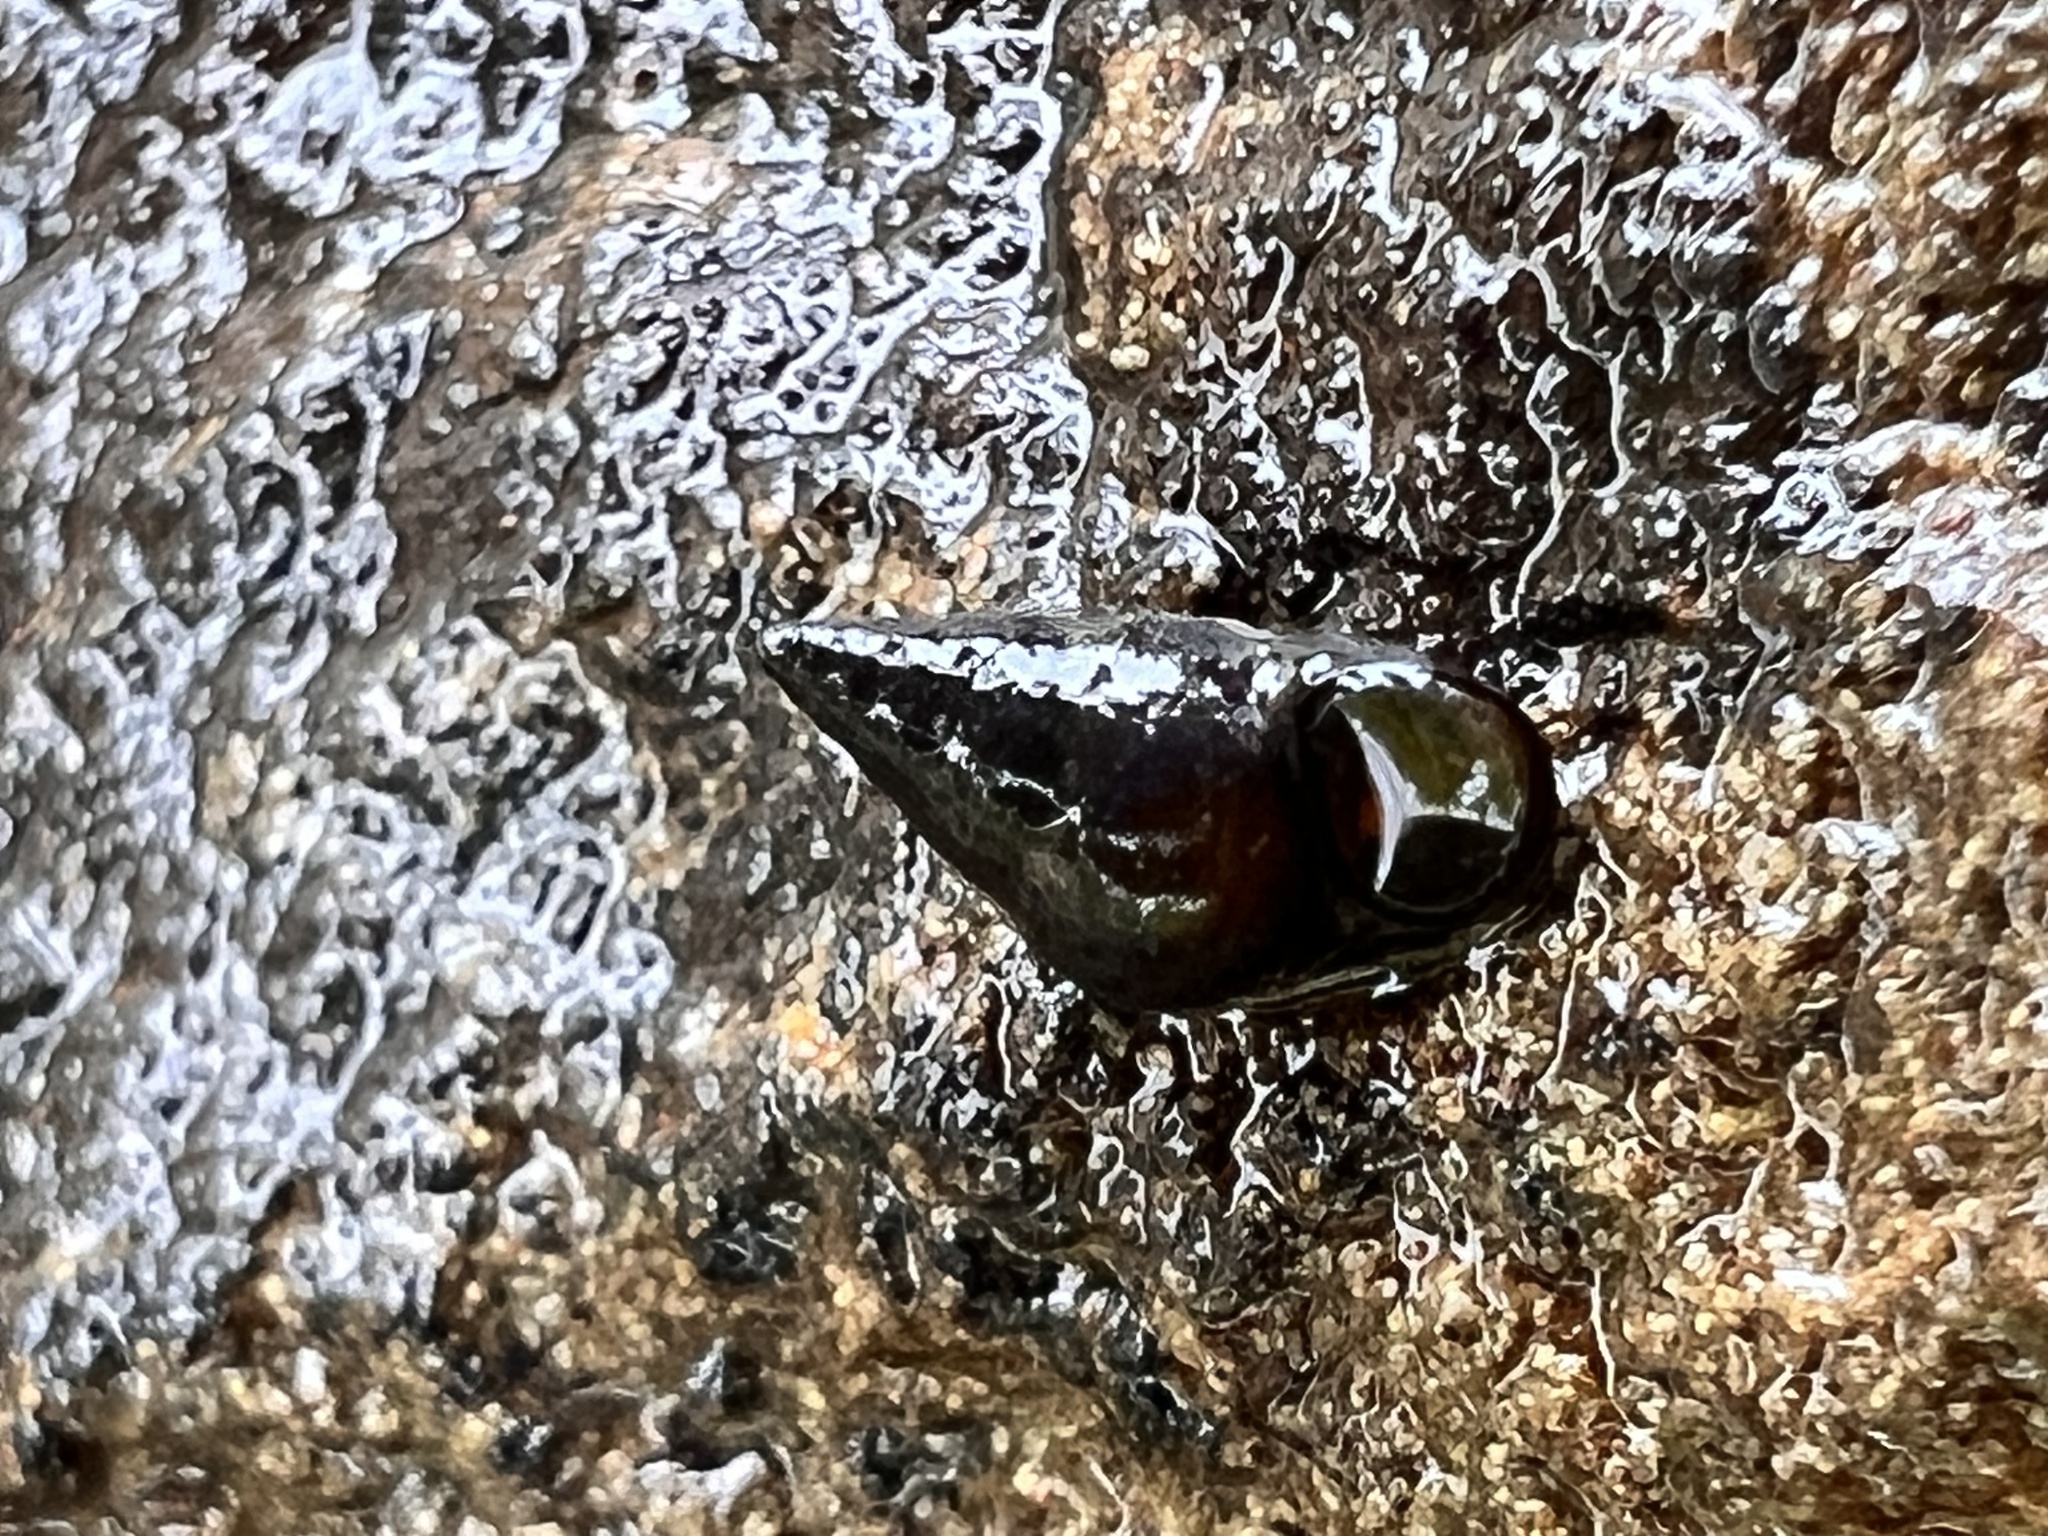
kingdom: Animalia
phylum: Mollusca
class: Gastropoda
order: Littorinimorpha
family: Tateidae
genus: Potamopyrgus
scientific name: Potamopyrgus antipodarum
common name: Jenkins' spire snail
